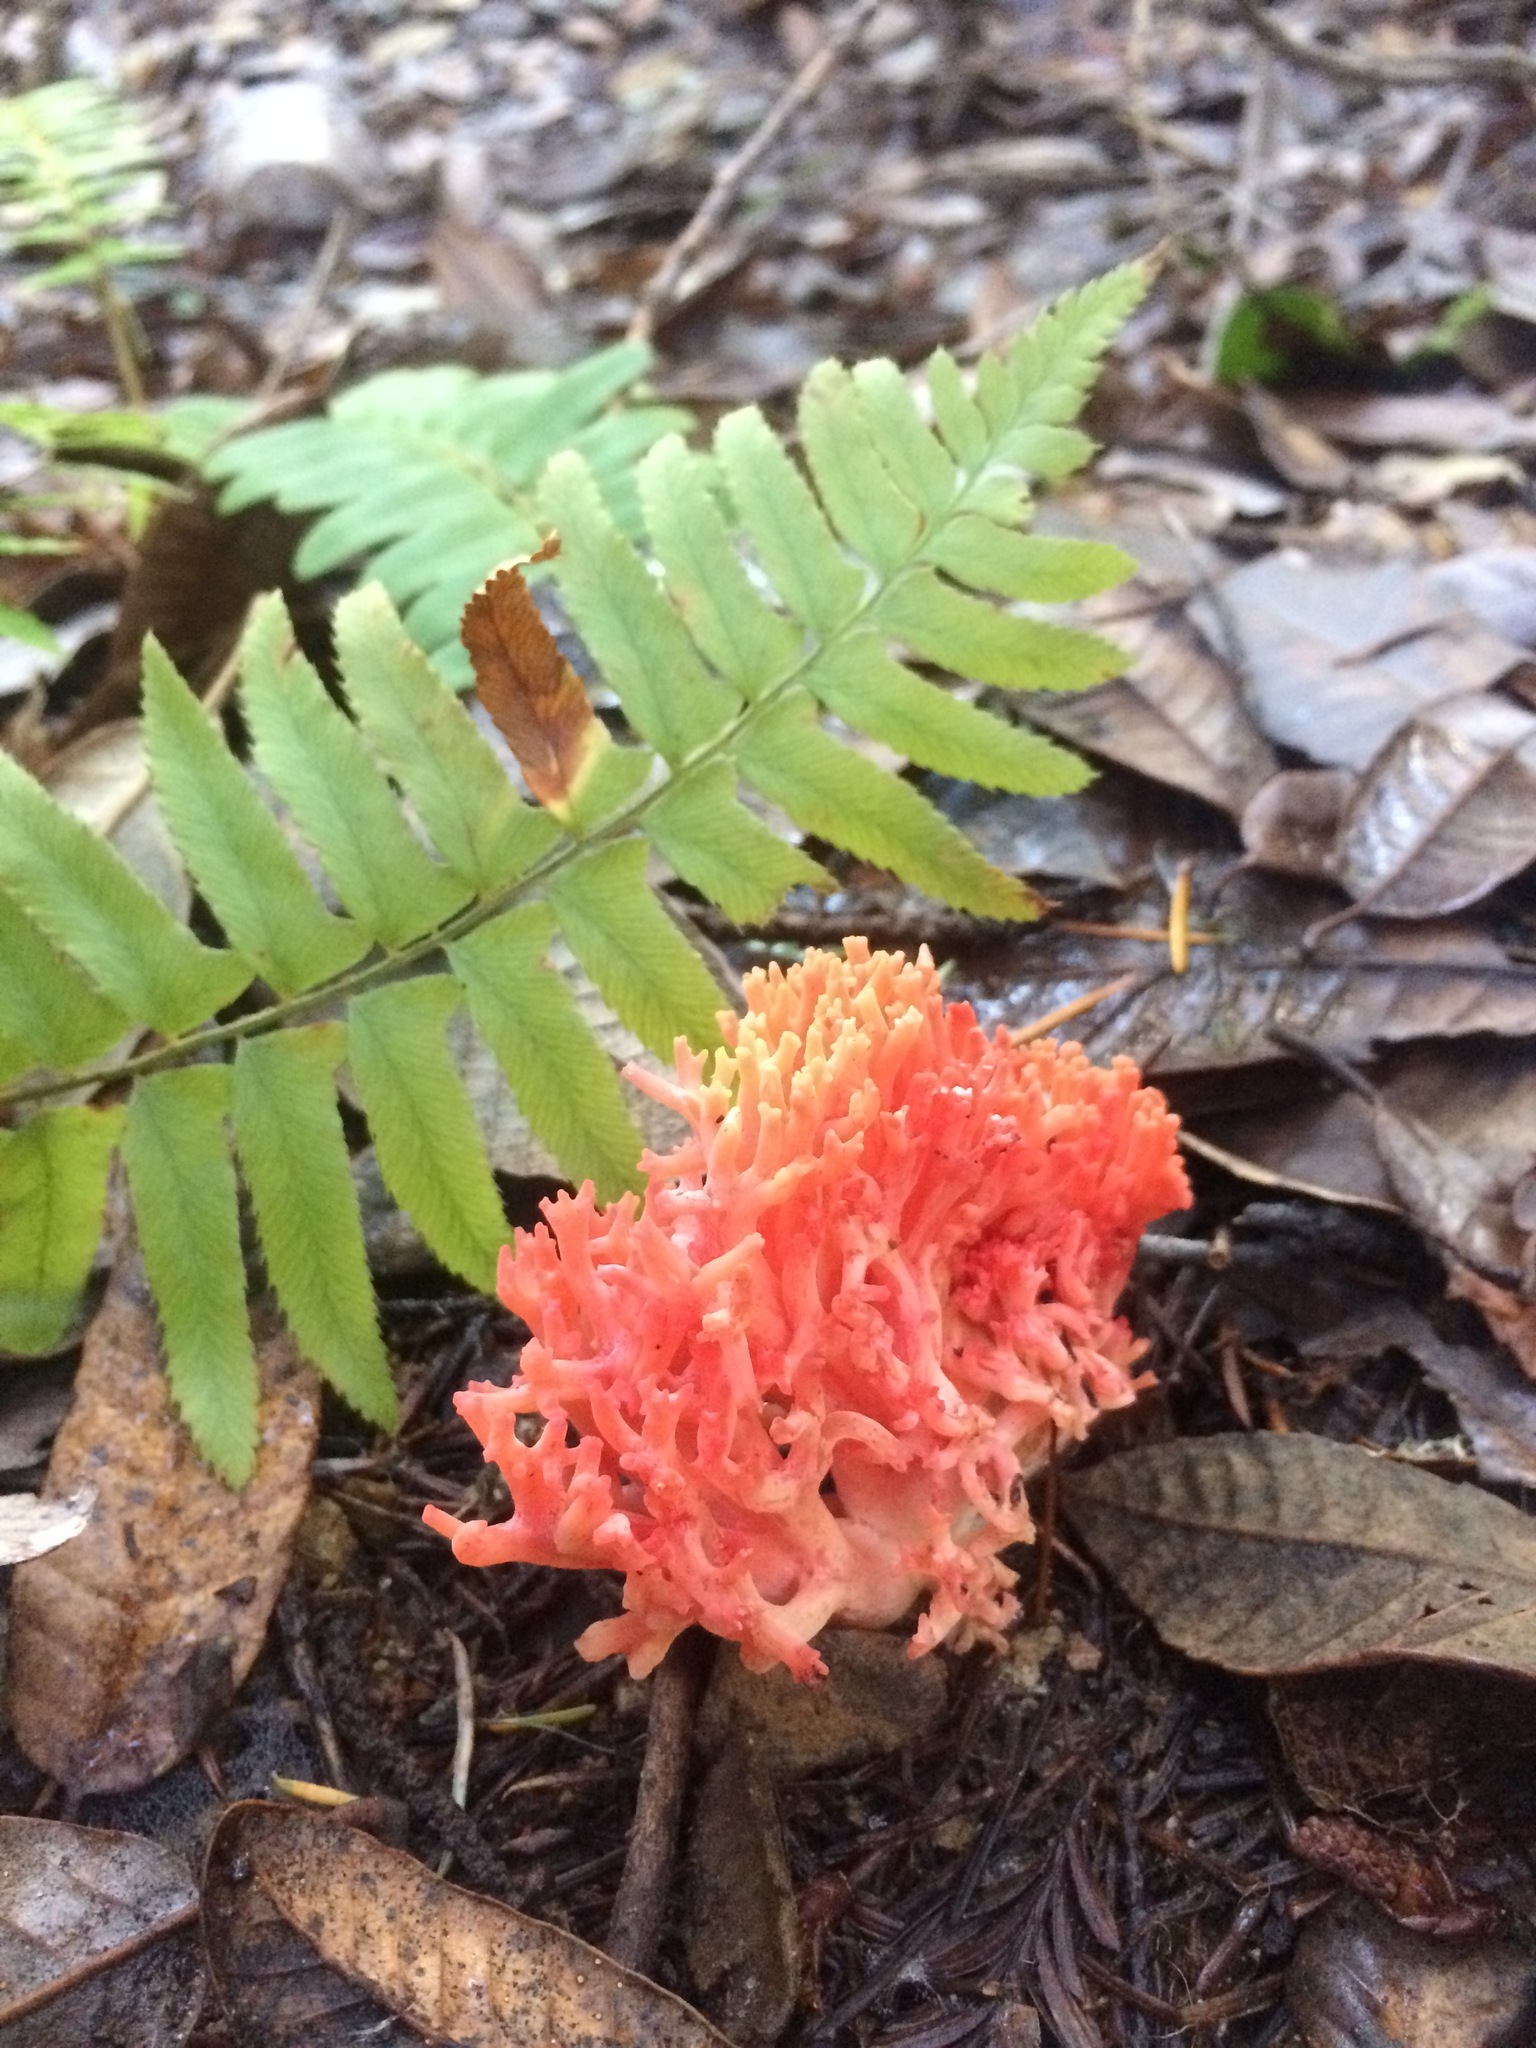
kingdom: Fungi
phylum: Basidiomycota
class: Agaricomycetes
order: Gomphales
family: Gomphaceae
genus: Ramaria
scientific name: Ramaria araiospora
